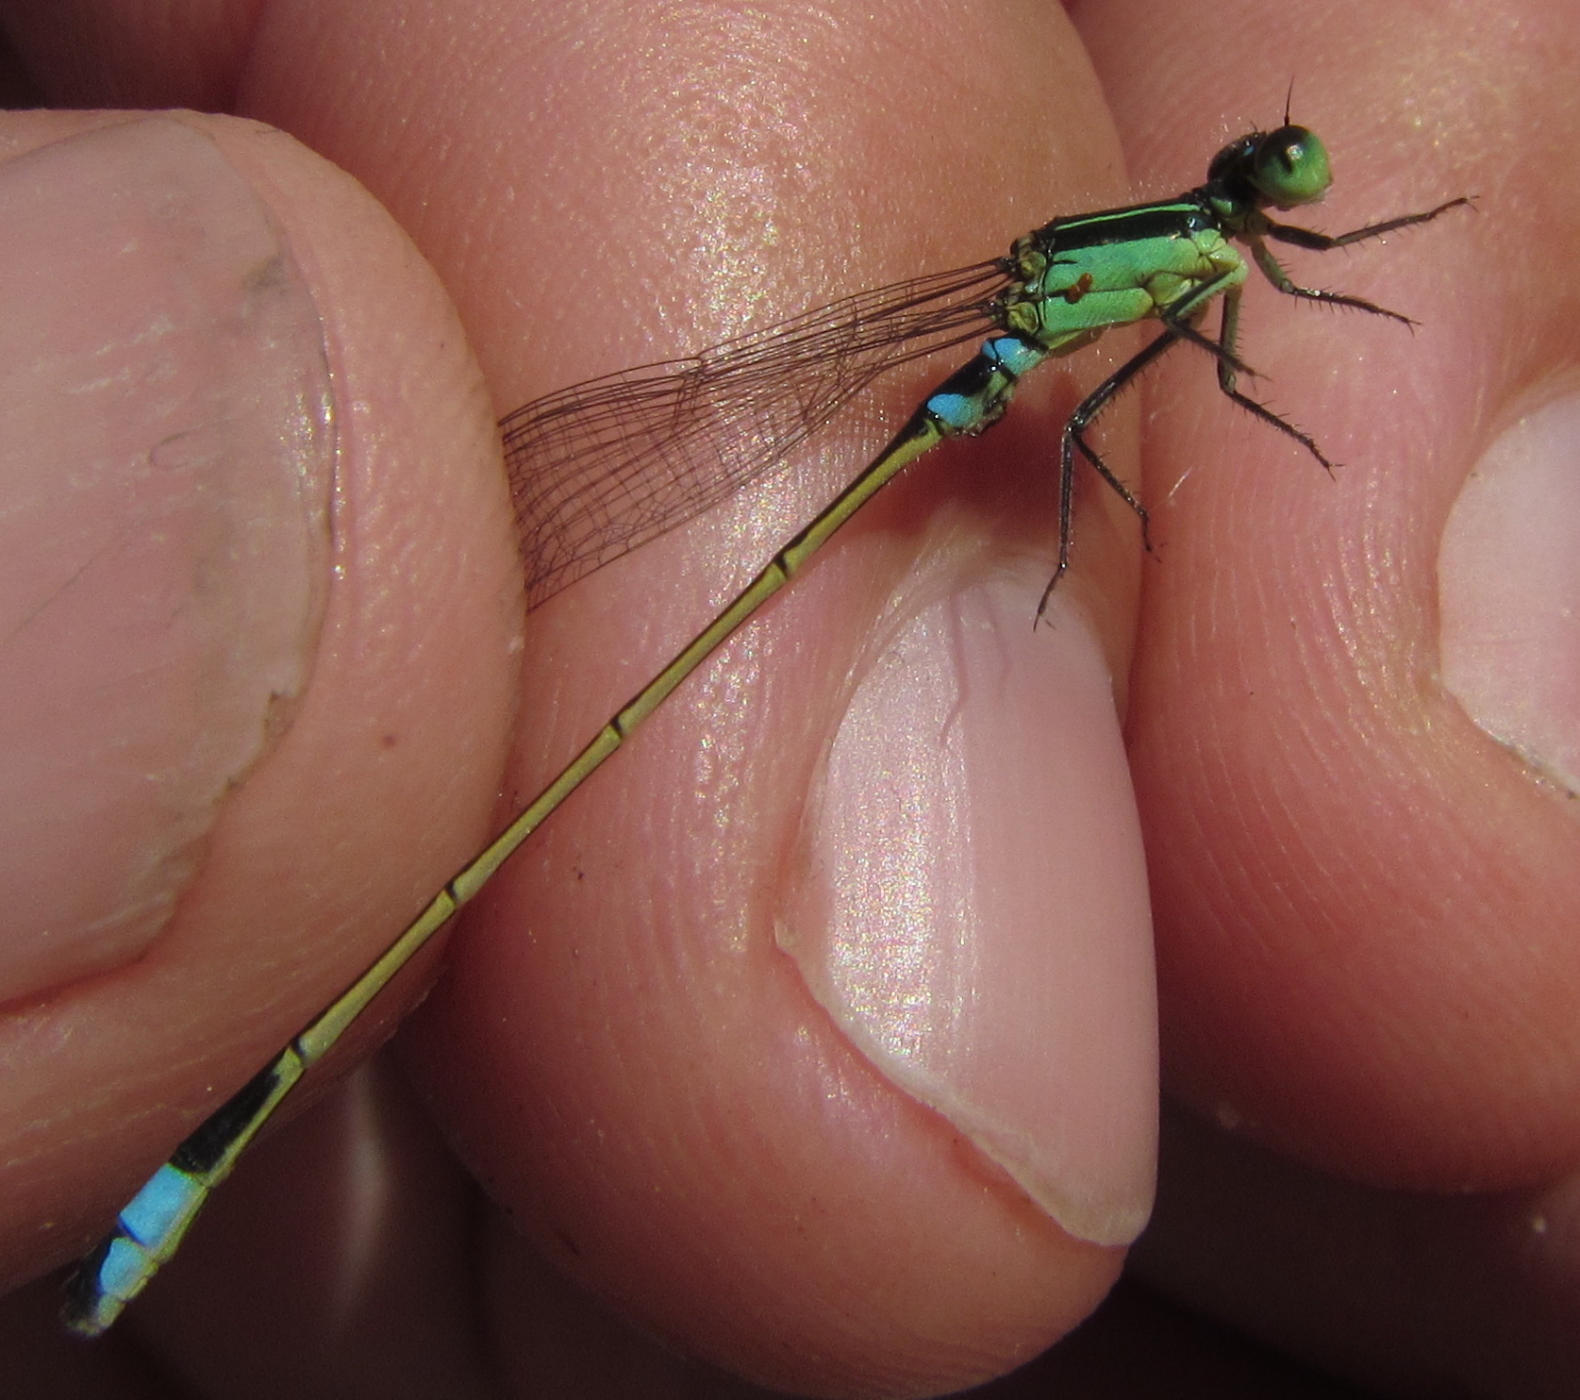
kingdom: Animalia
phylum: Arthropoda
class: Insecta
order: Odonata
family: Coenagrionidae
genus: Ischnura
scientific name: Ischnura senegalensis
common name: Tropical bluetail
